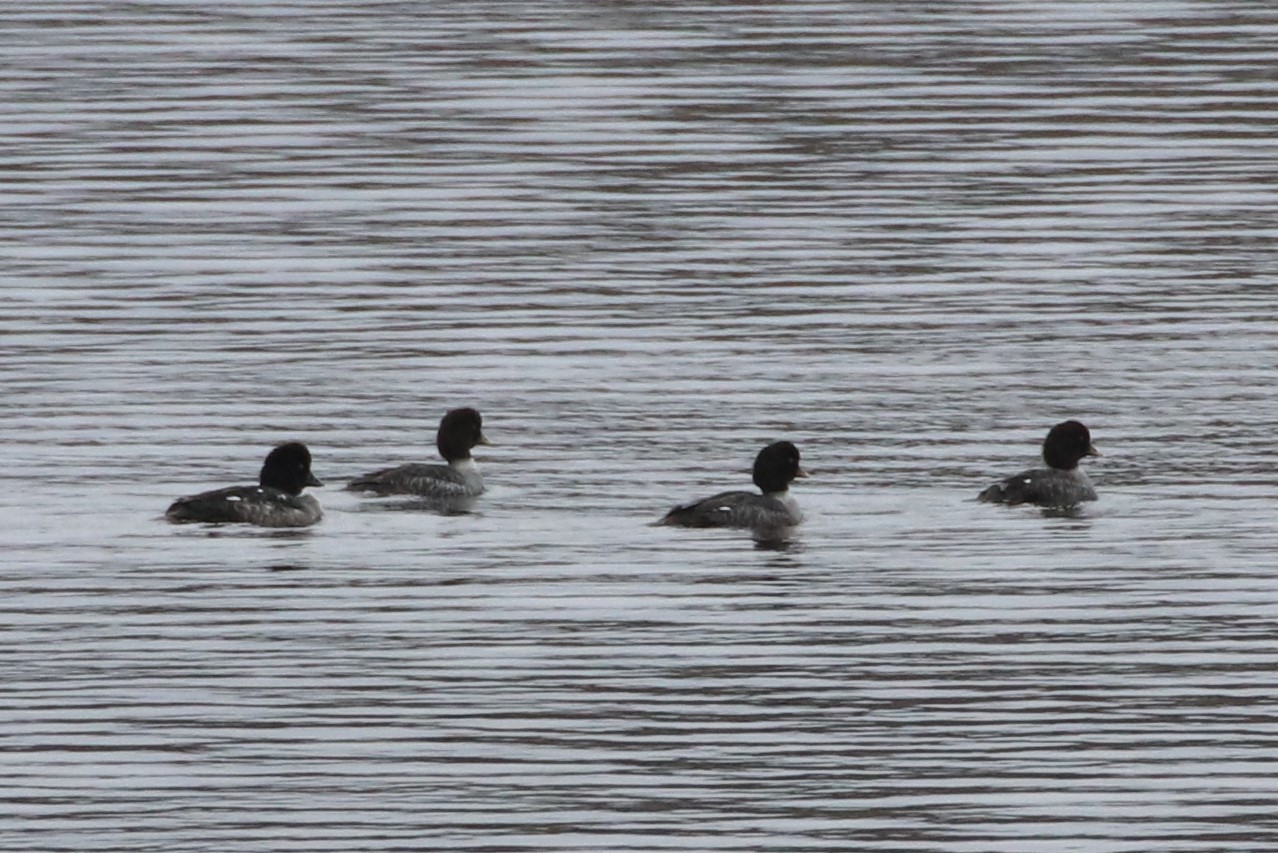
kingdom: Animalia
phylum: Chordata
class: Aves
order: Anseriformes
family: Anatidae
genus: Bucephala
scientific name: Bucephala islandica
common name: Barrow's goldeneye
